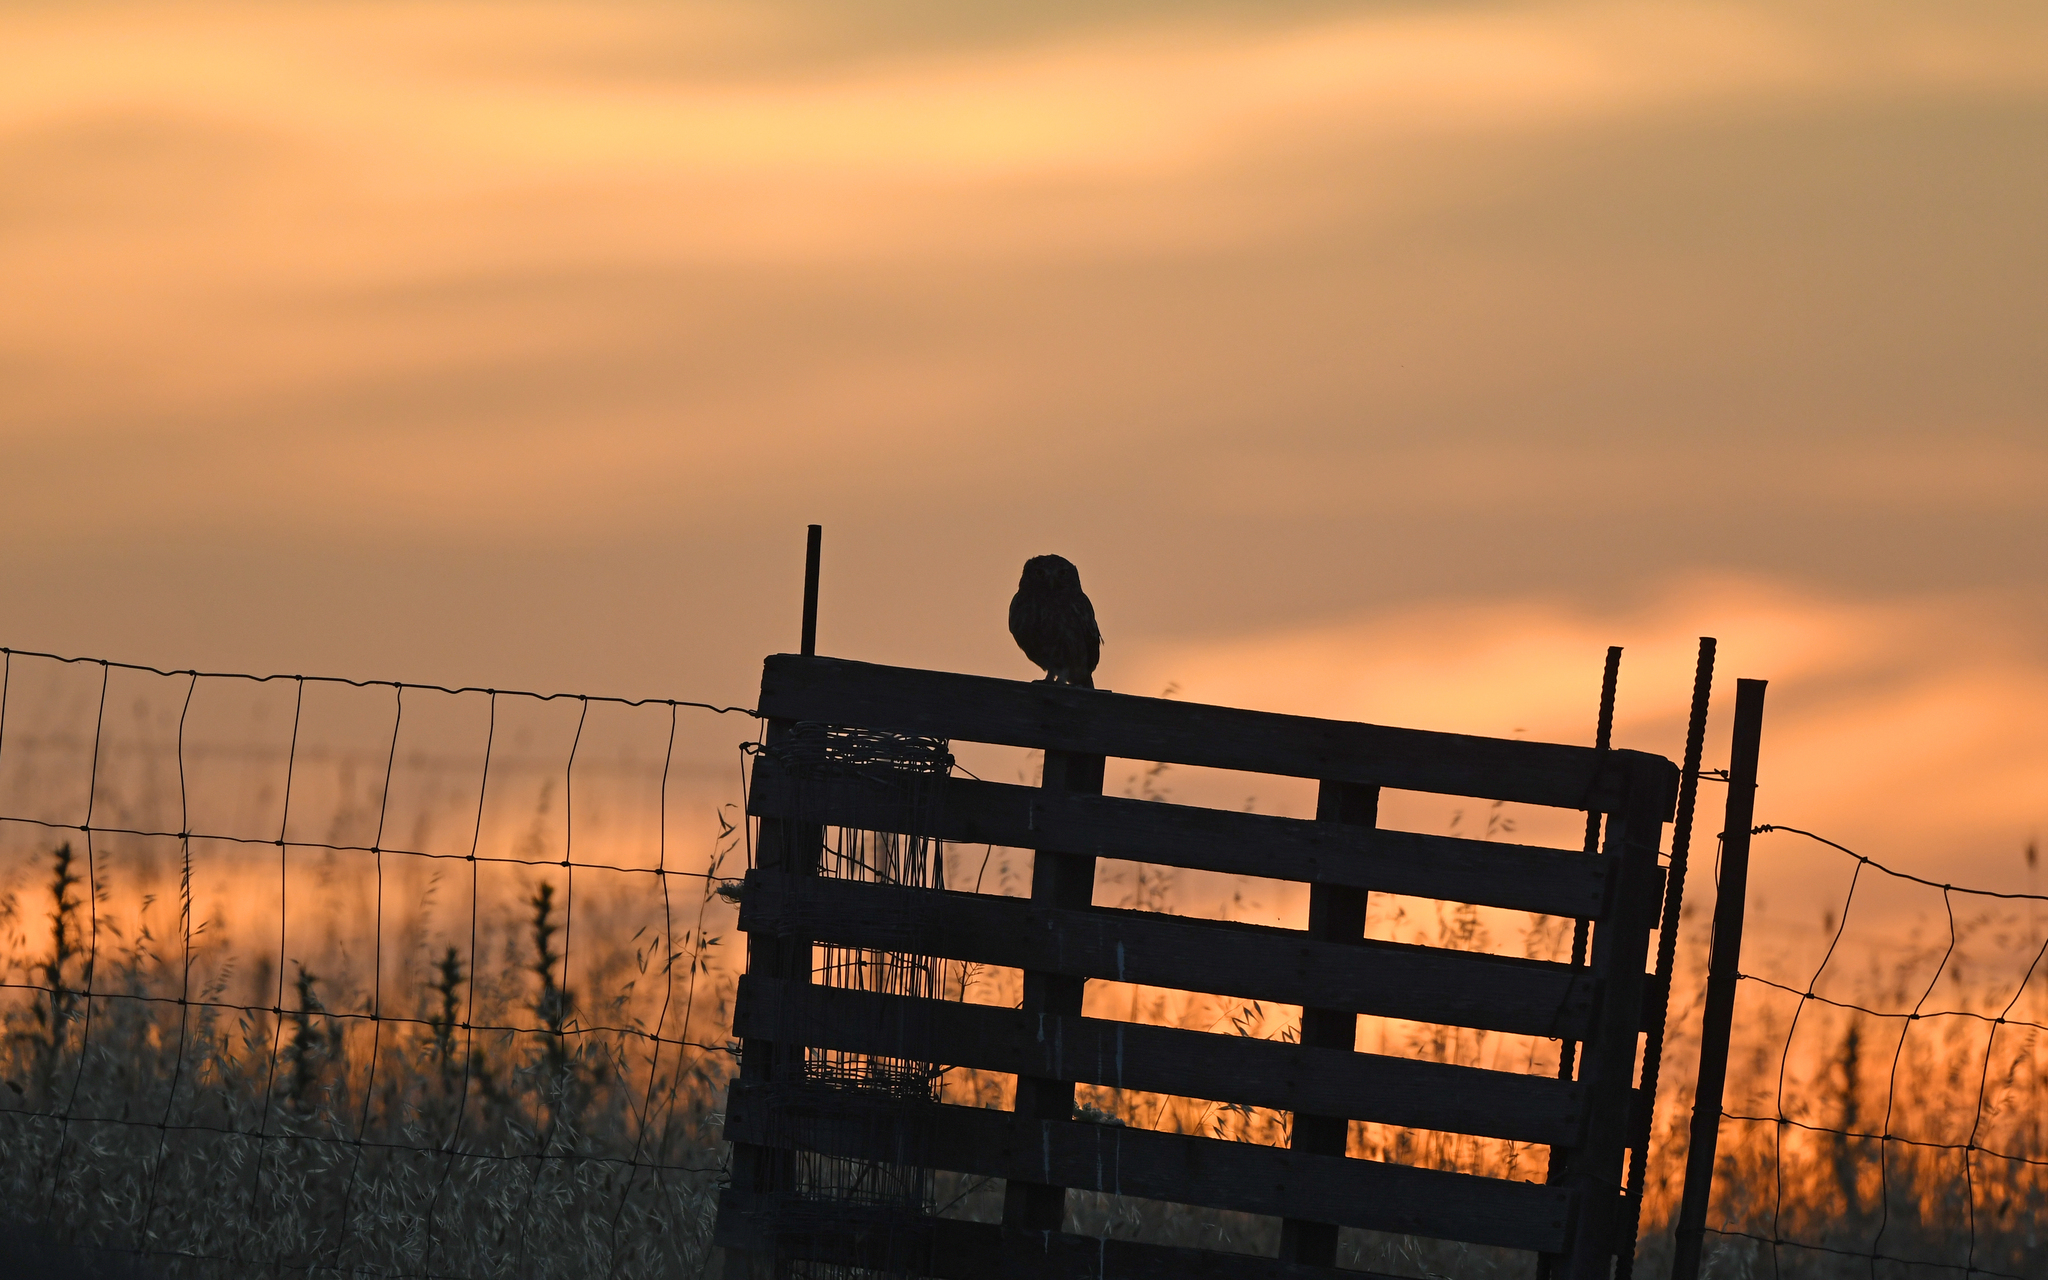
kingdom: Animalia
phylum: Chordata
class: Aves
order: Strigiformes
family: Strigidae
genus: Athene
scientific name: Athene noctua
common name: Little owl
